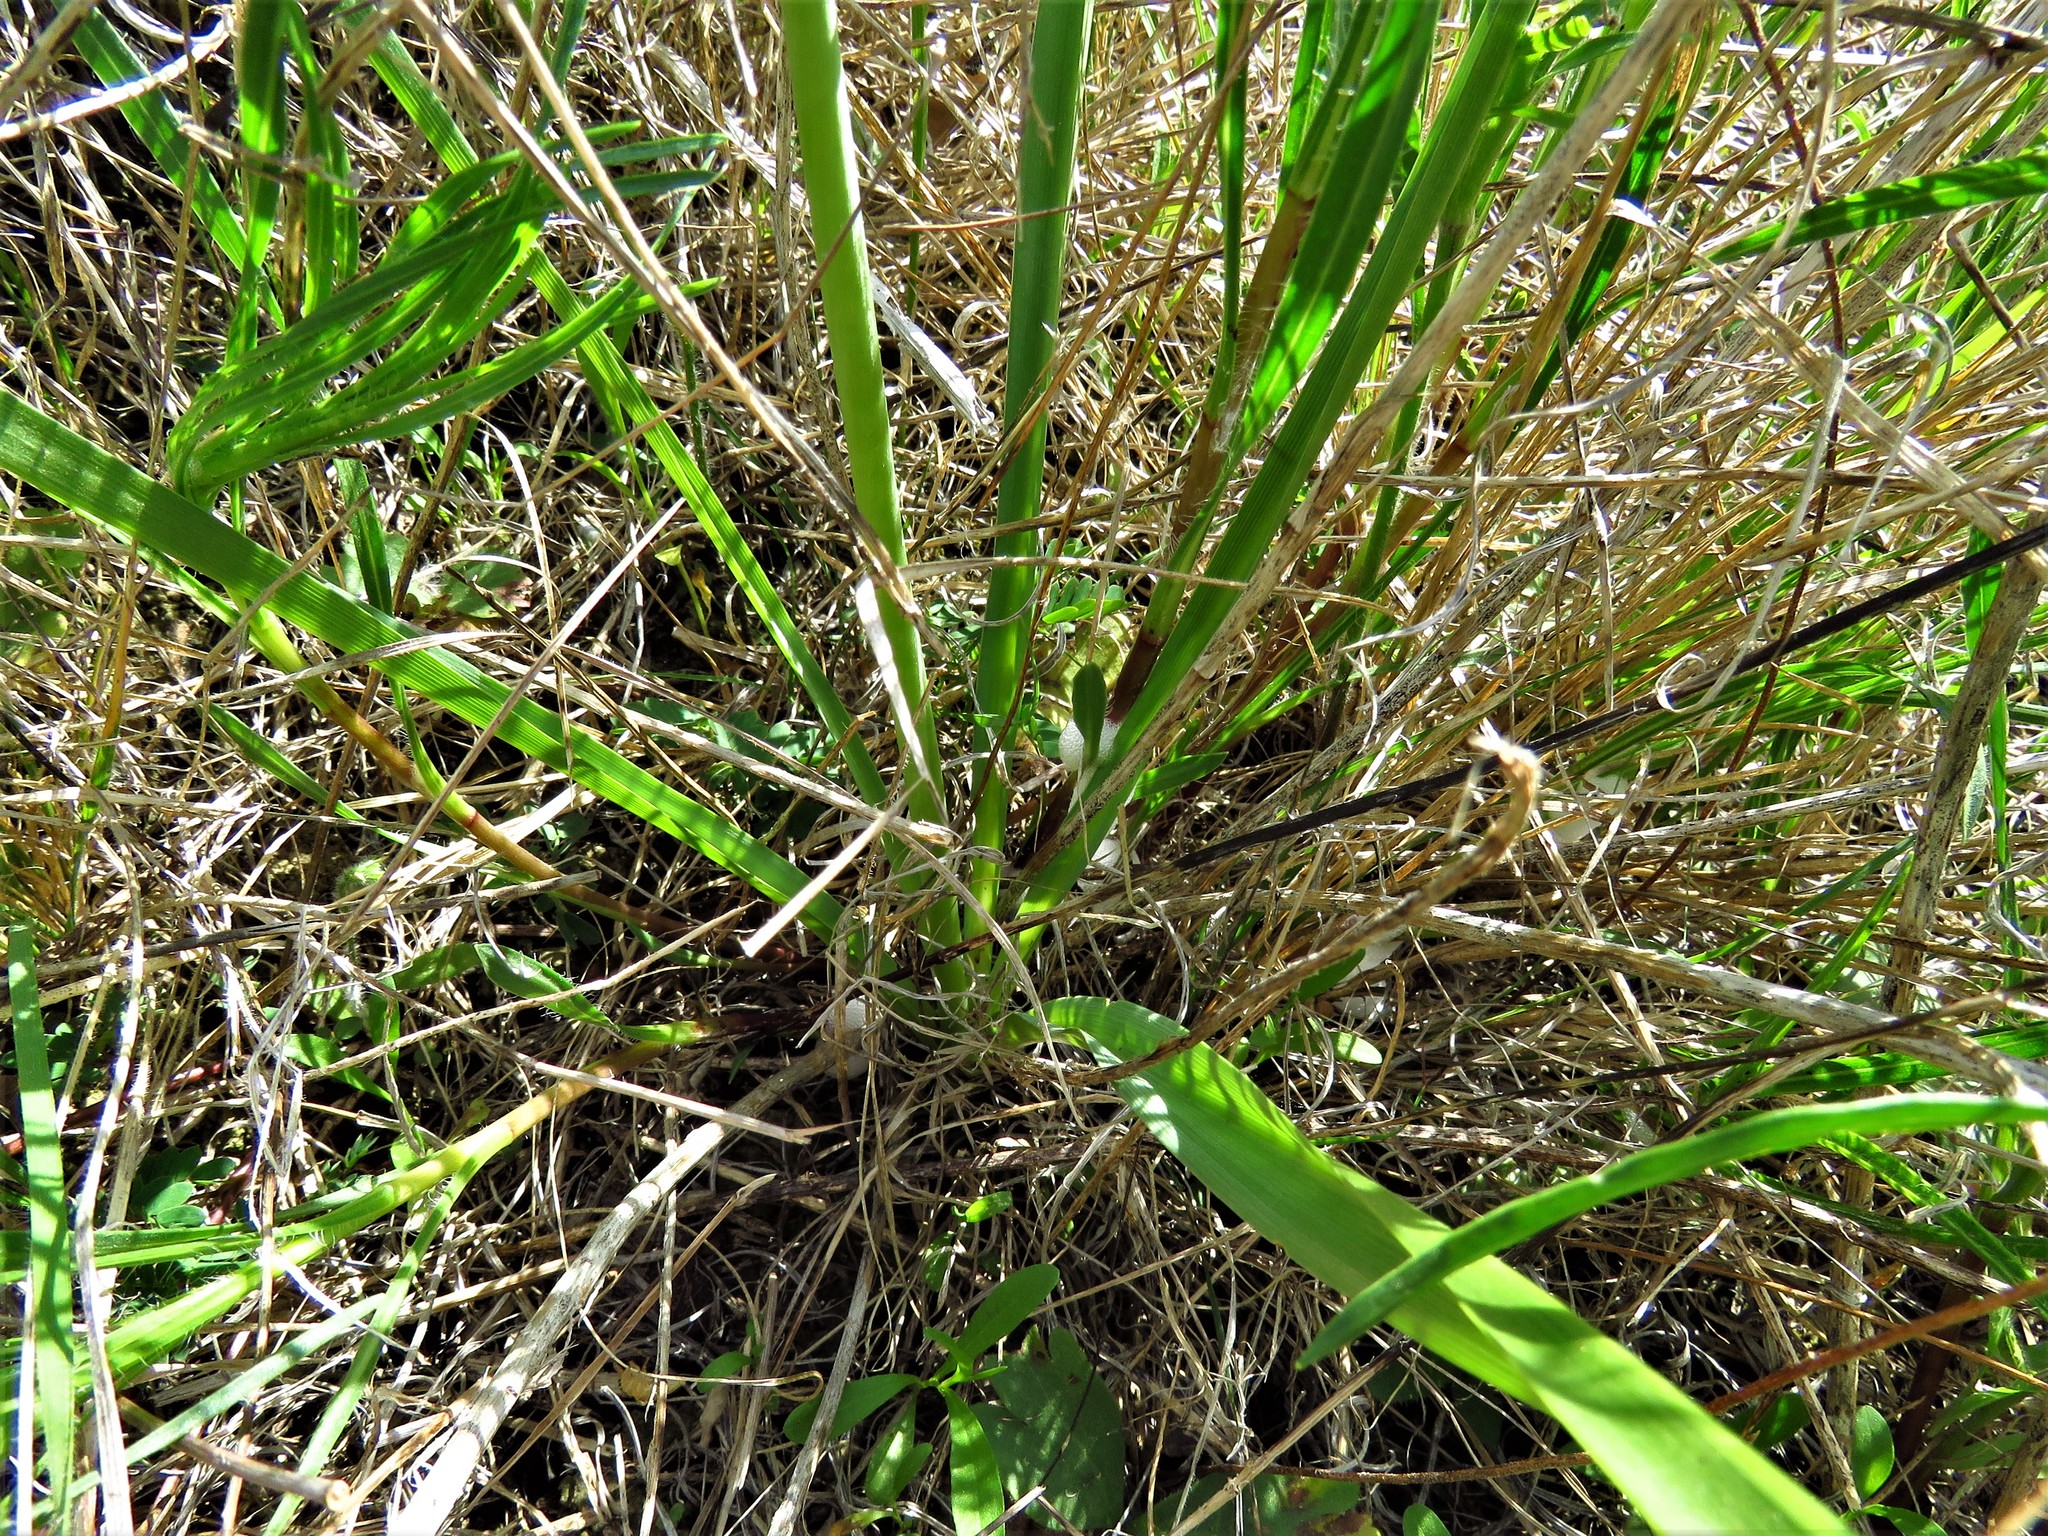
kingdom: Plantae
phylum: Tracheophyta
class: Liliopsida
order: Asparagales
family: Asparagaceae
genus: Camassia
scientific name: Camassia scilloides
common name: Wild hyacinth
